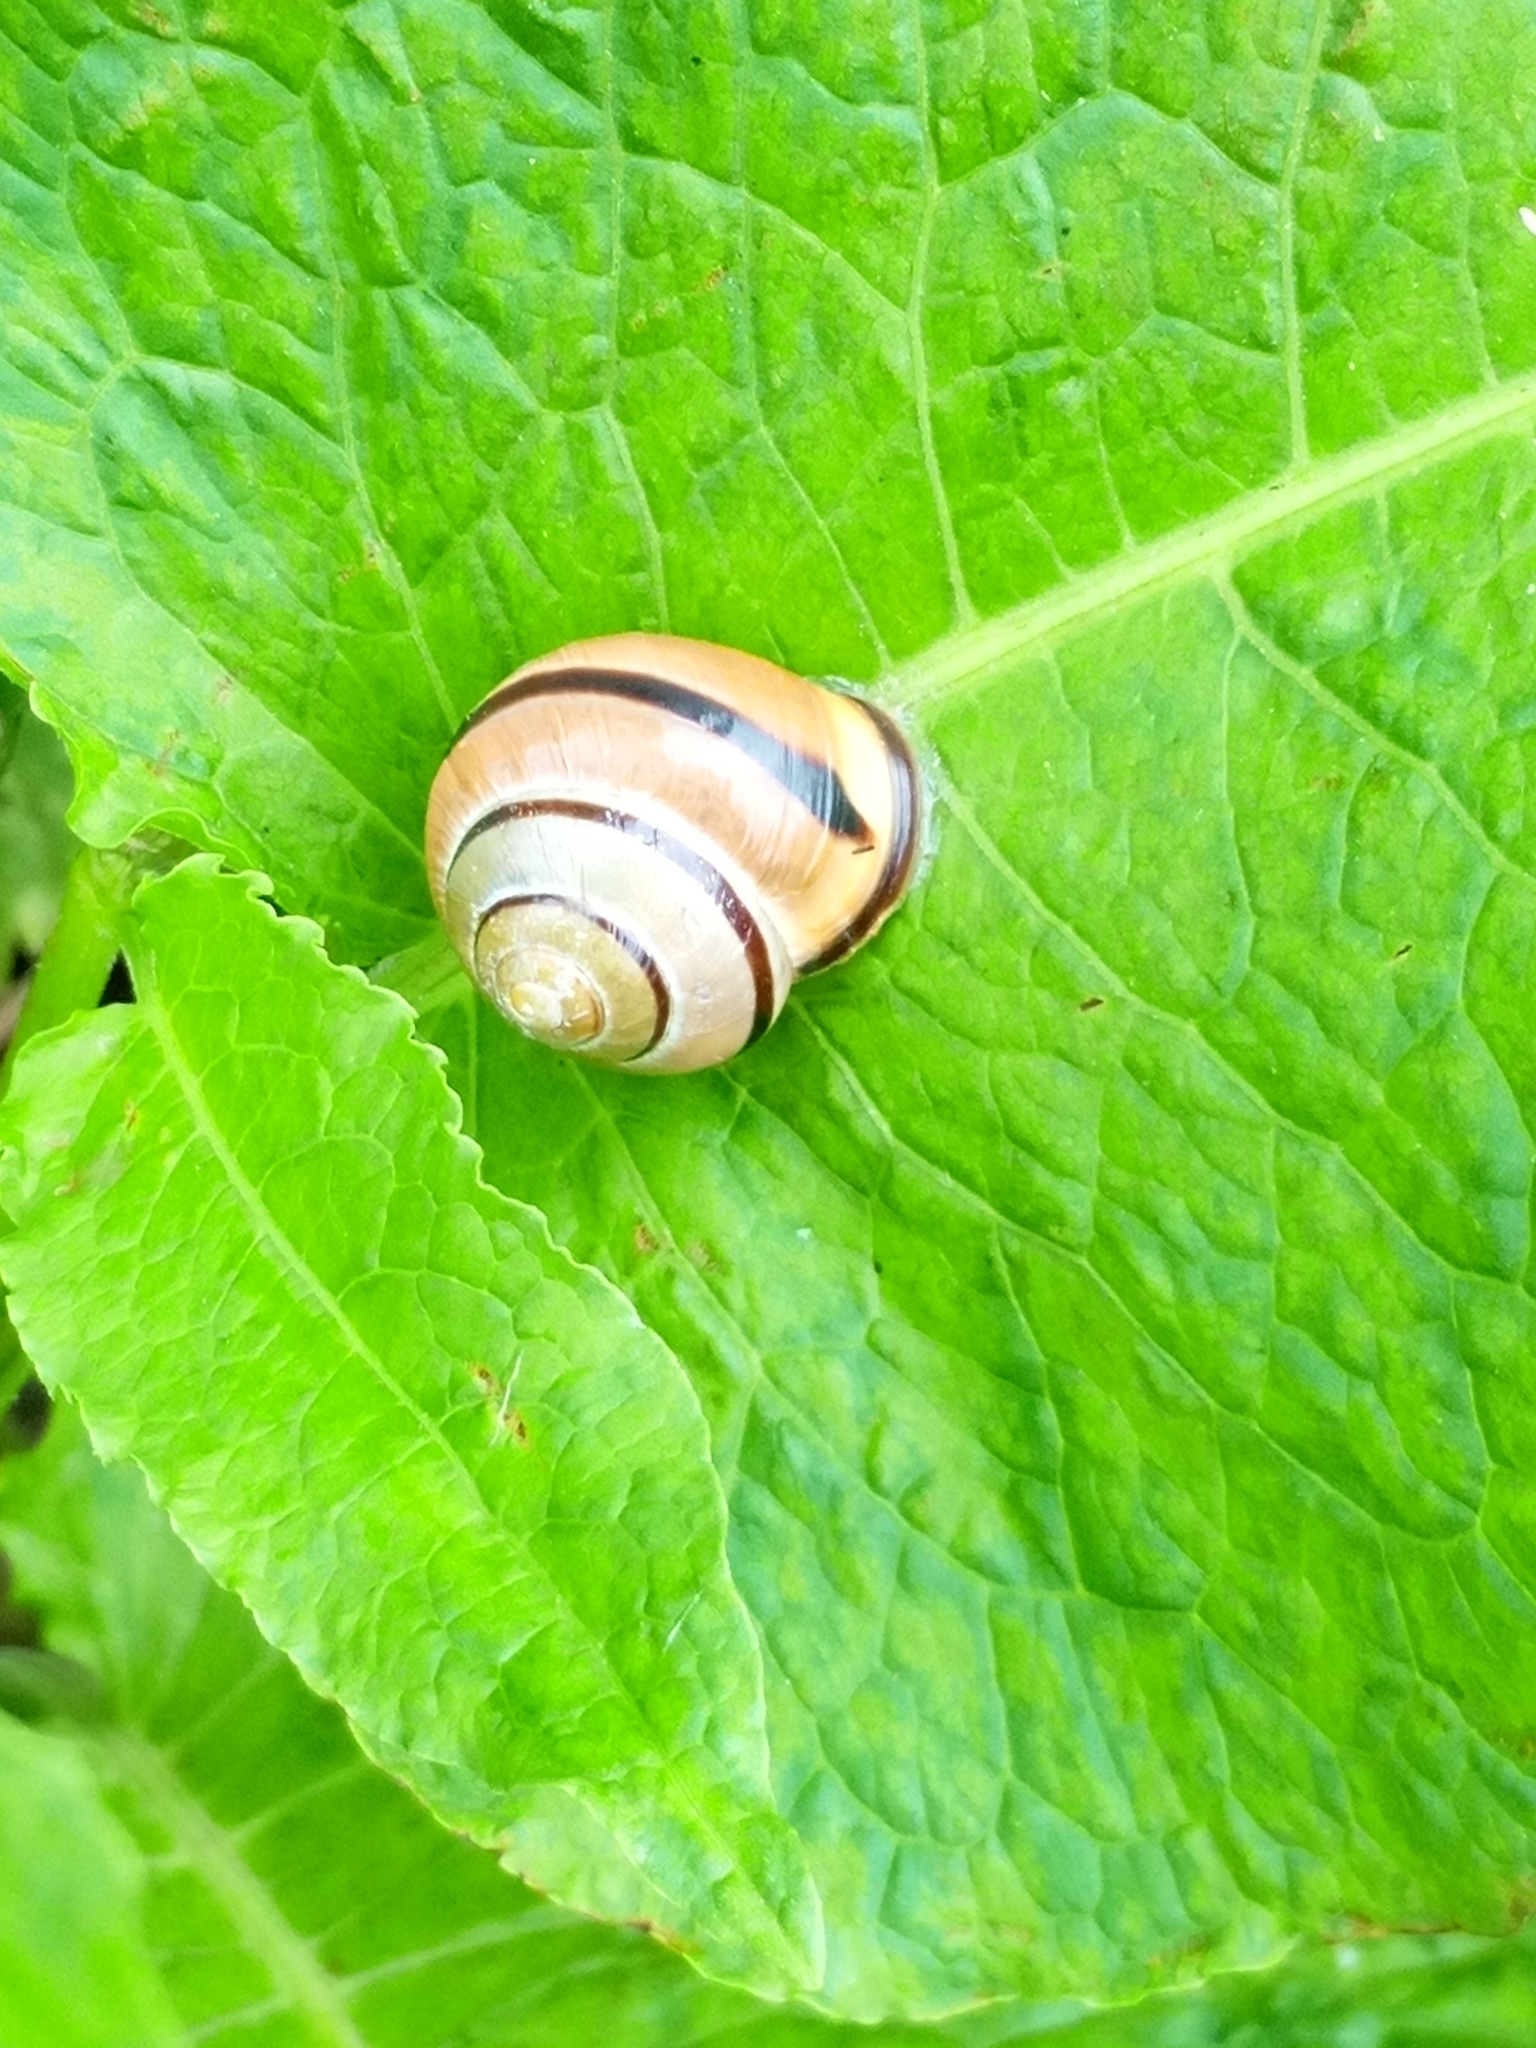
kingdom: Animalia
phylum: Mollusca
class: Gastropoda
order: Stylommatophora
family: Helicidae
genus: Cepaea
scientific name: Cepaea nemoralis
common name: Grovesnail
